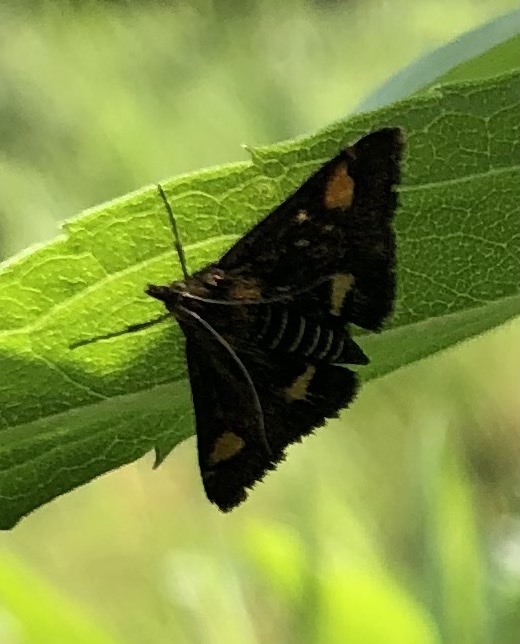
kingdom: Animalia
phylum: Arthropoda
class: Insecta
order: Lepidoptera
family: Crambidae
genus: Pyrausta
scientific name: Pyrausta aurata
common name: Small purple & gold
